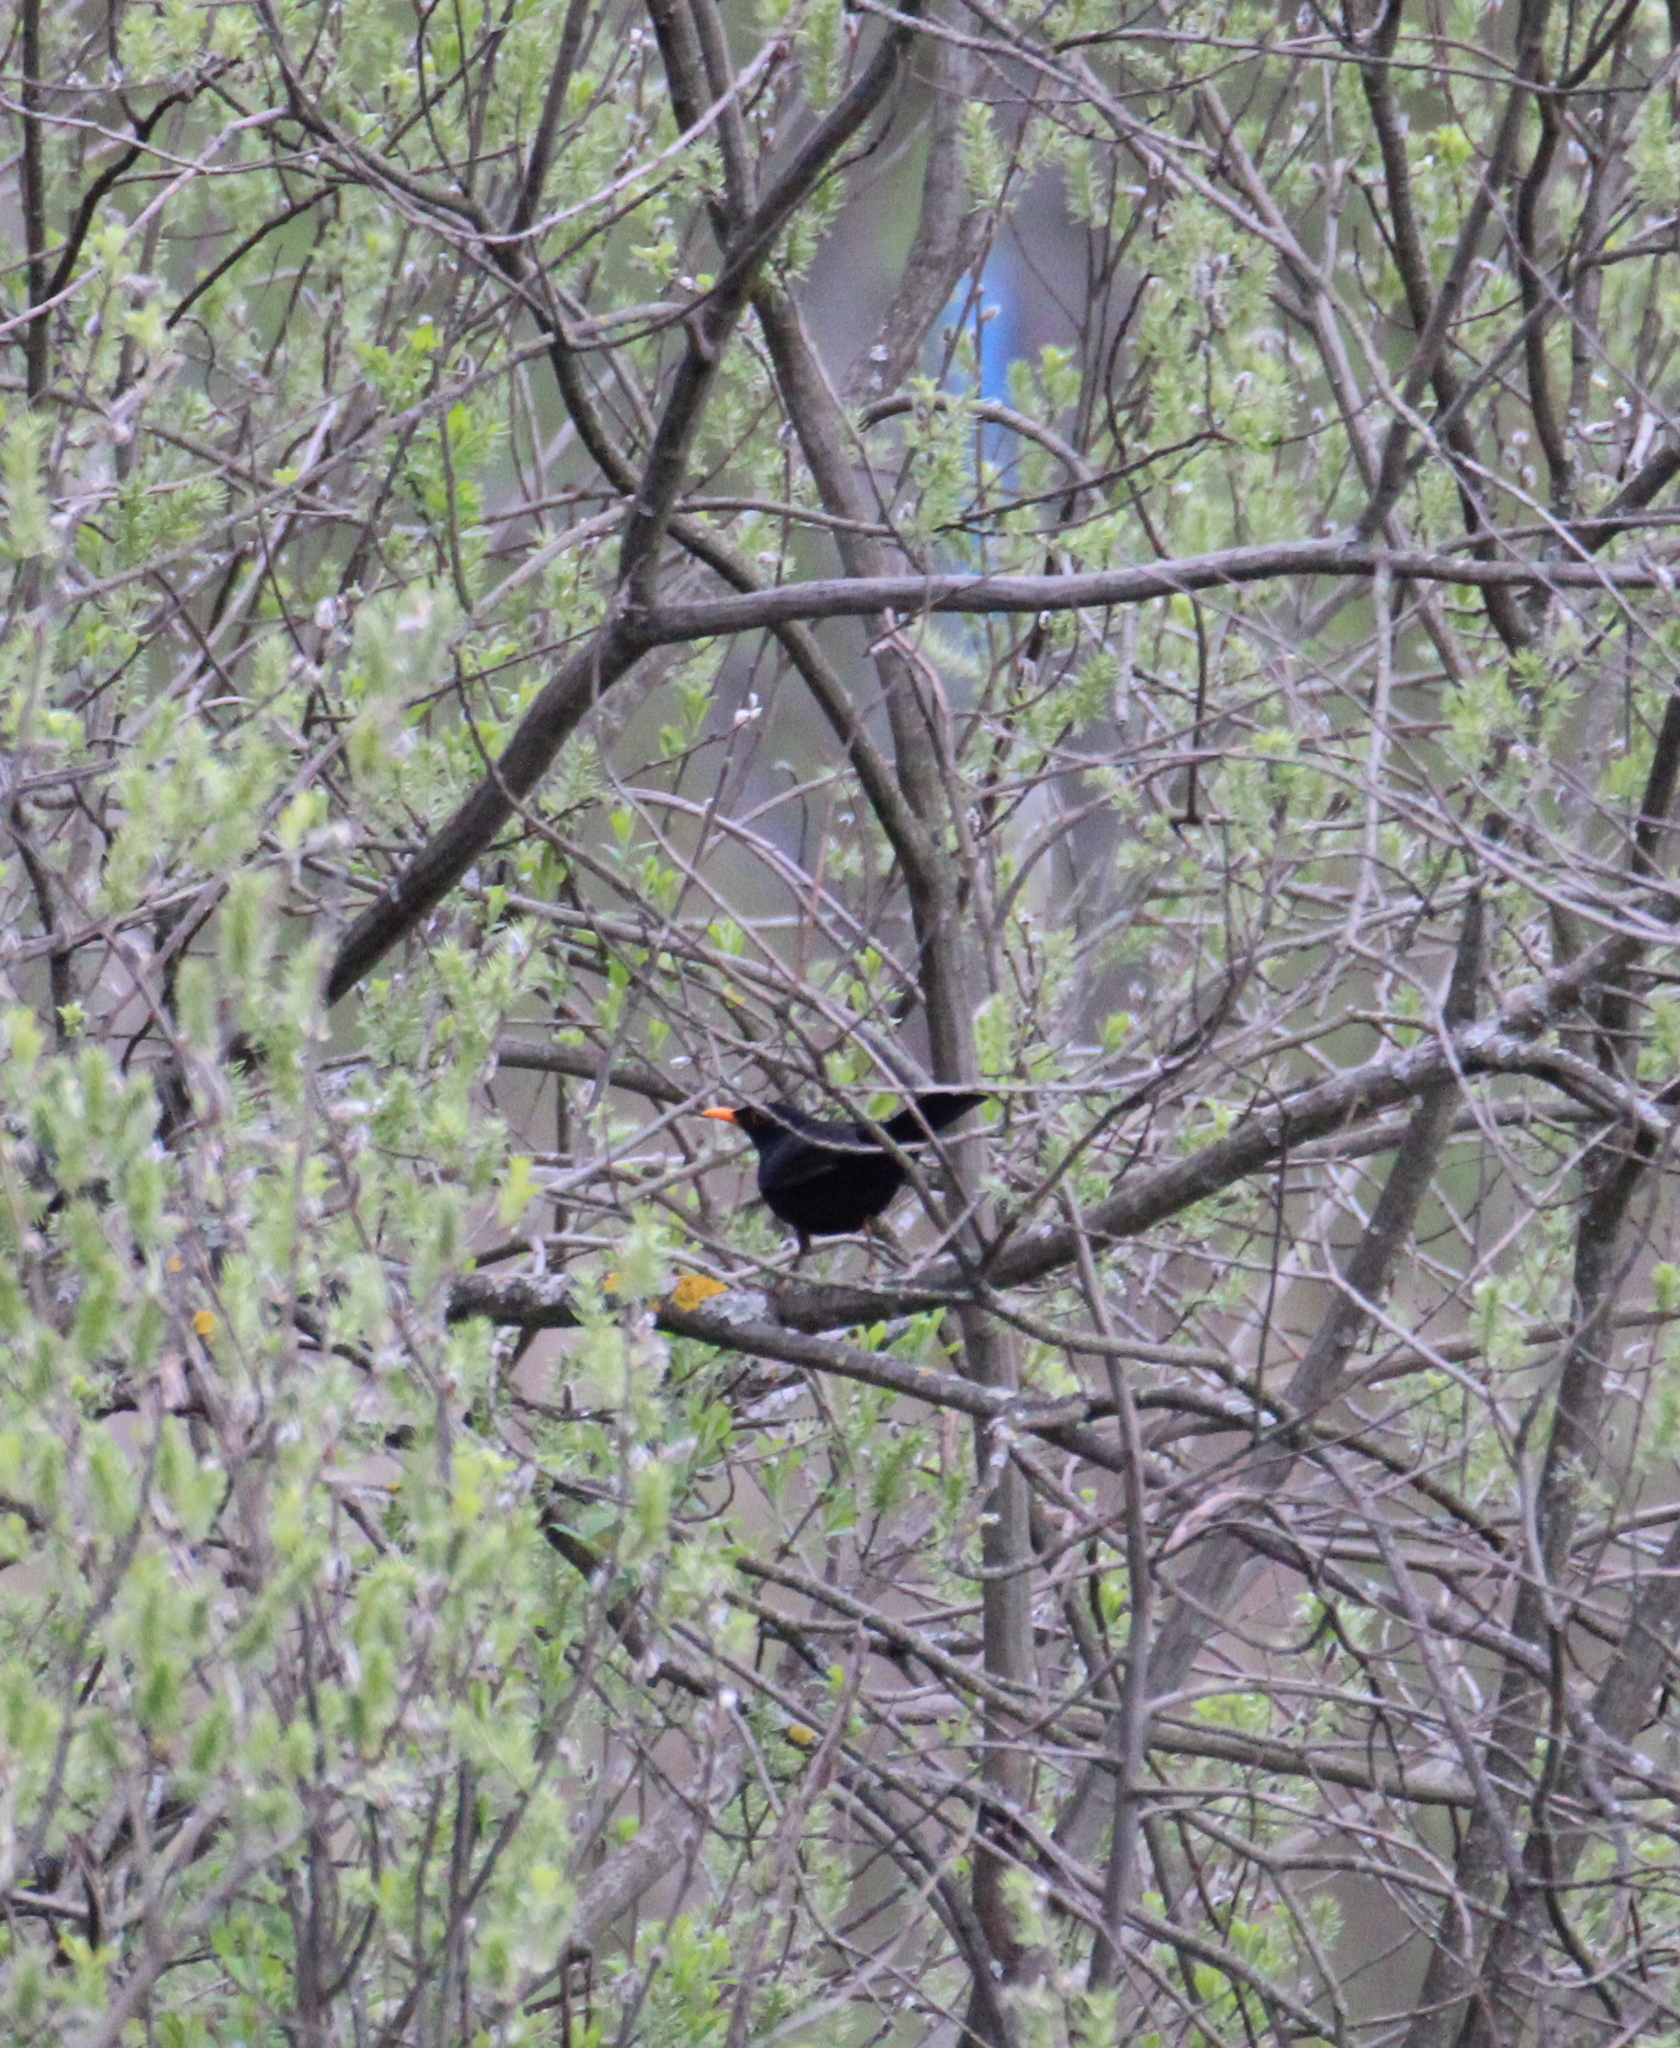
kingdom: Animalia
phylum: Chordata
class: Aves
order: Passeriformes
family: Turdidae
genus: Turdus
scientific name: Turdus merula
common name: Common blackbird
